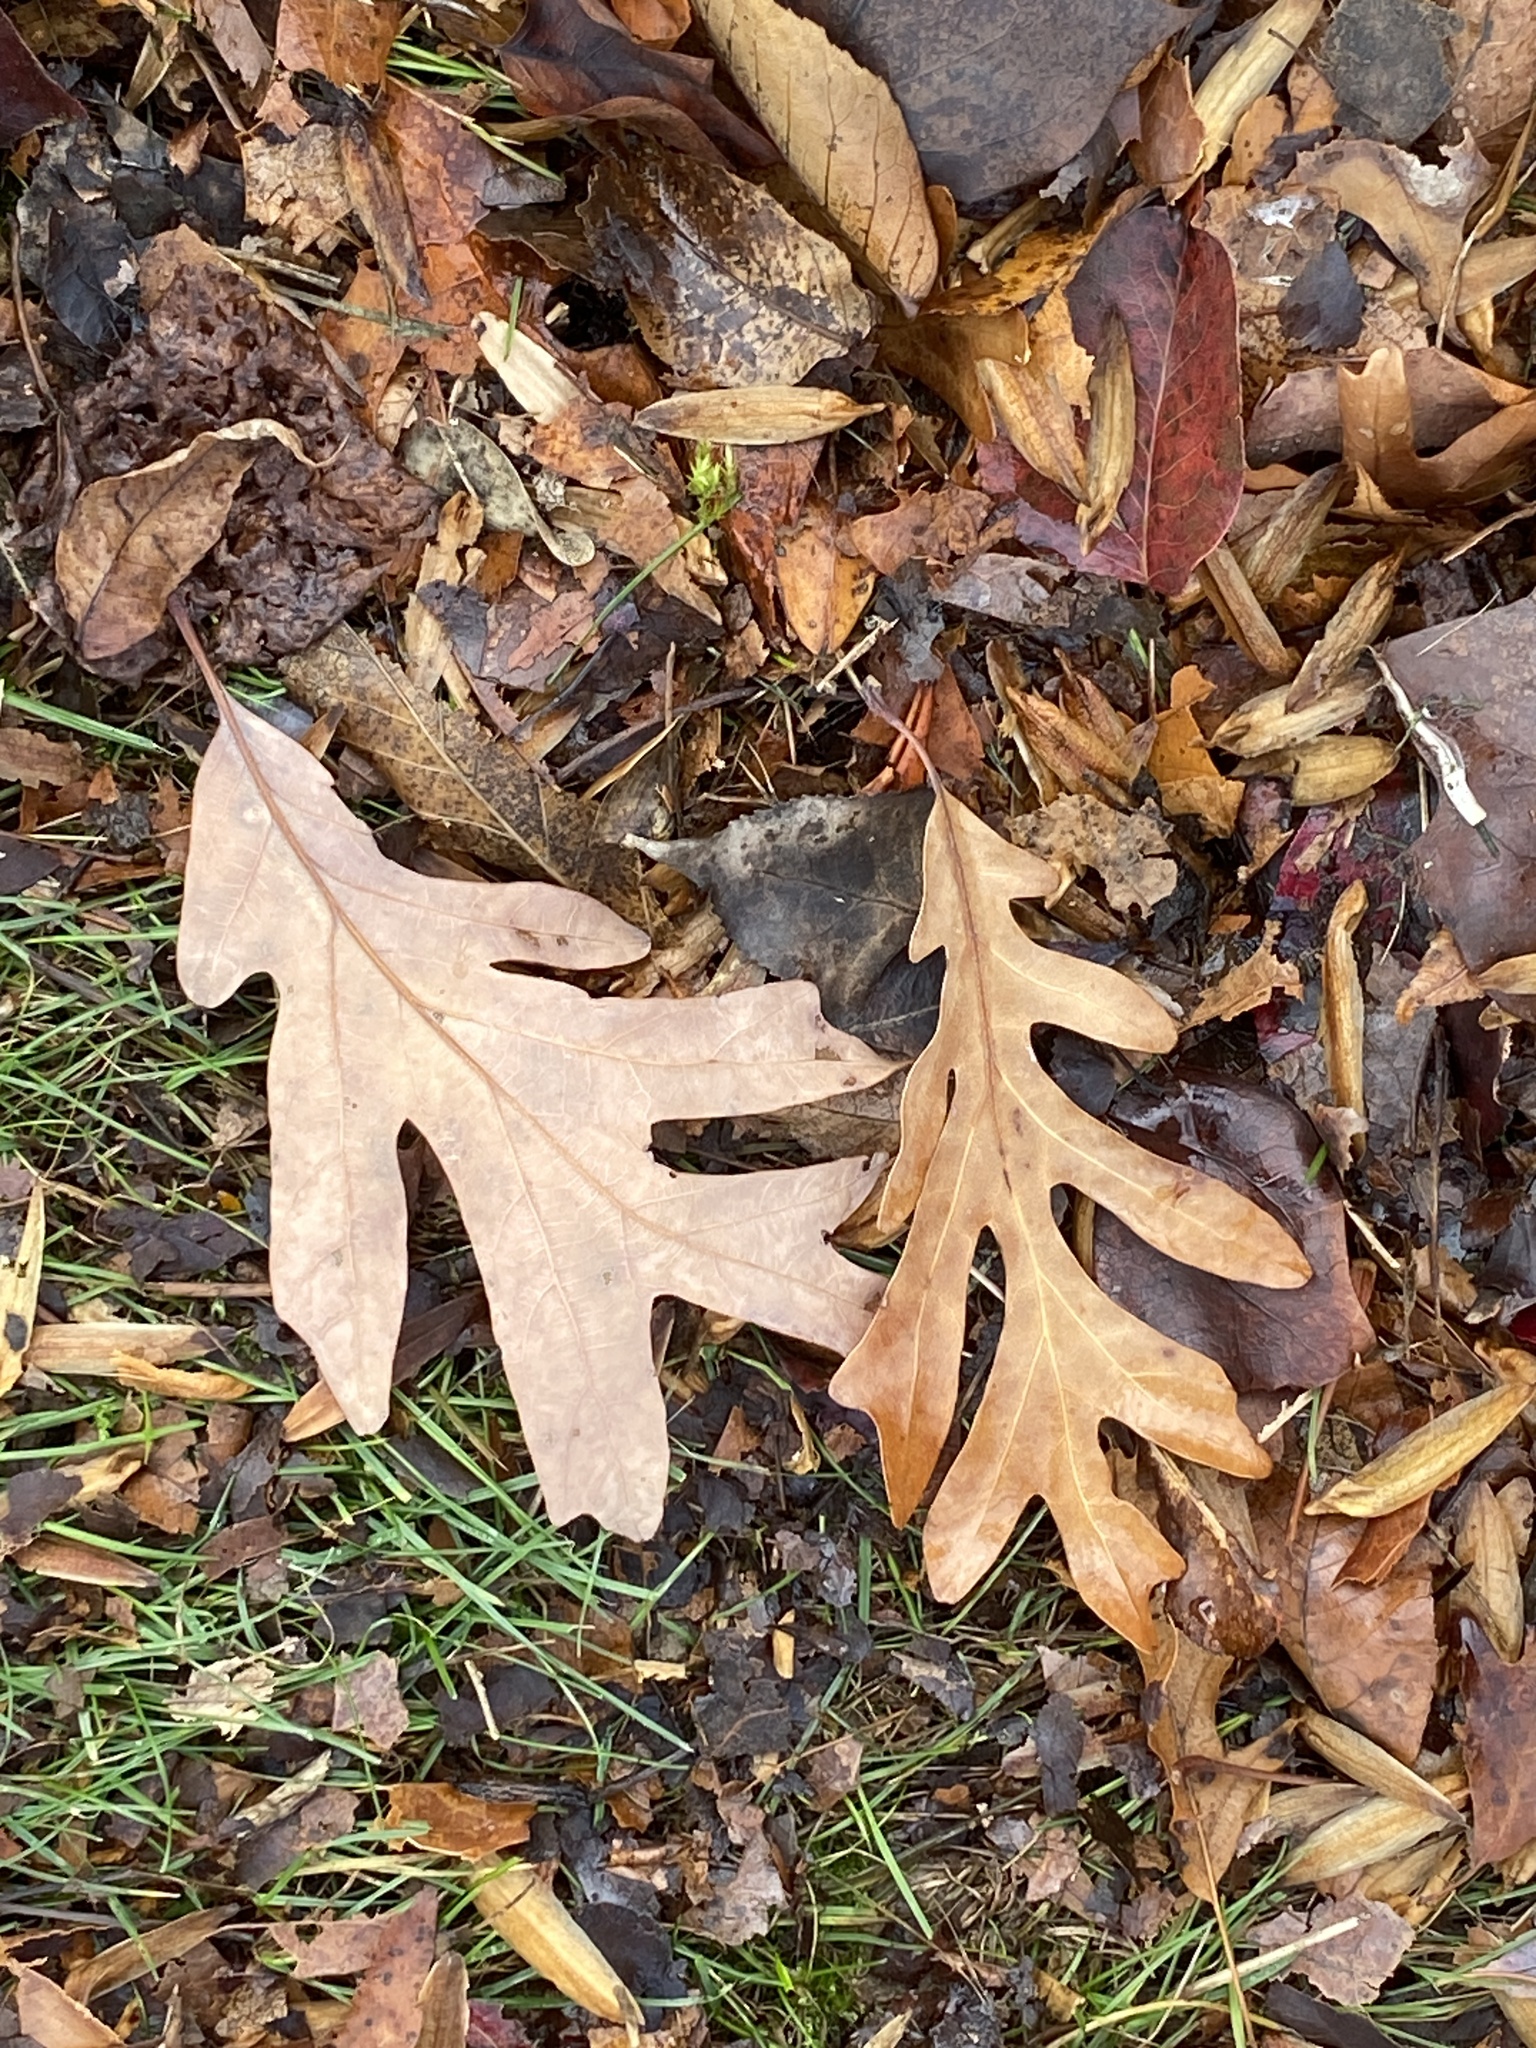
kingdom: Plantae
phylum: Tracheophyta
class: Magnoliopsida
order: Fagales
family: Fagaceae
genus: Quercus
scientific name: Quercus alba
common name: White oak
